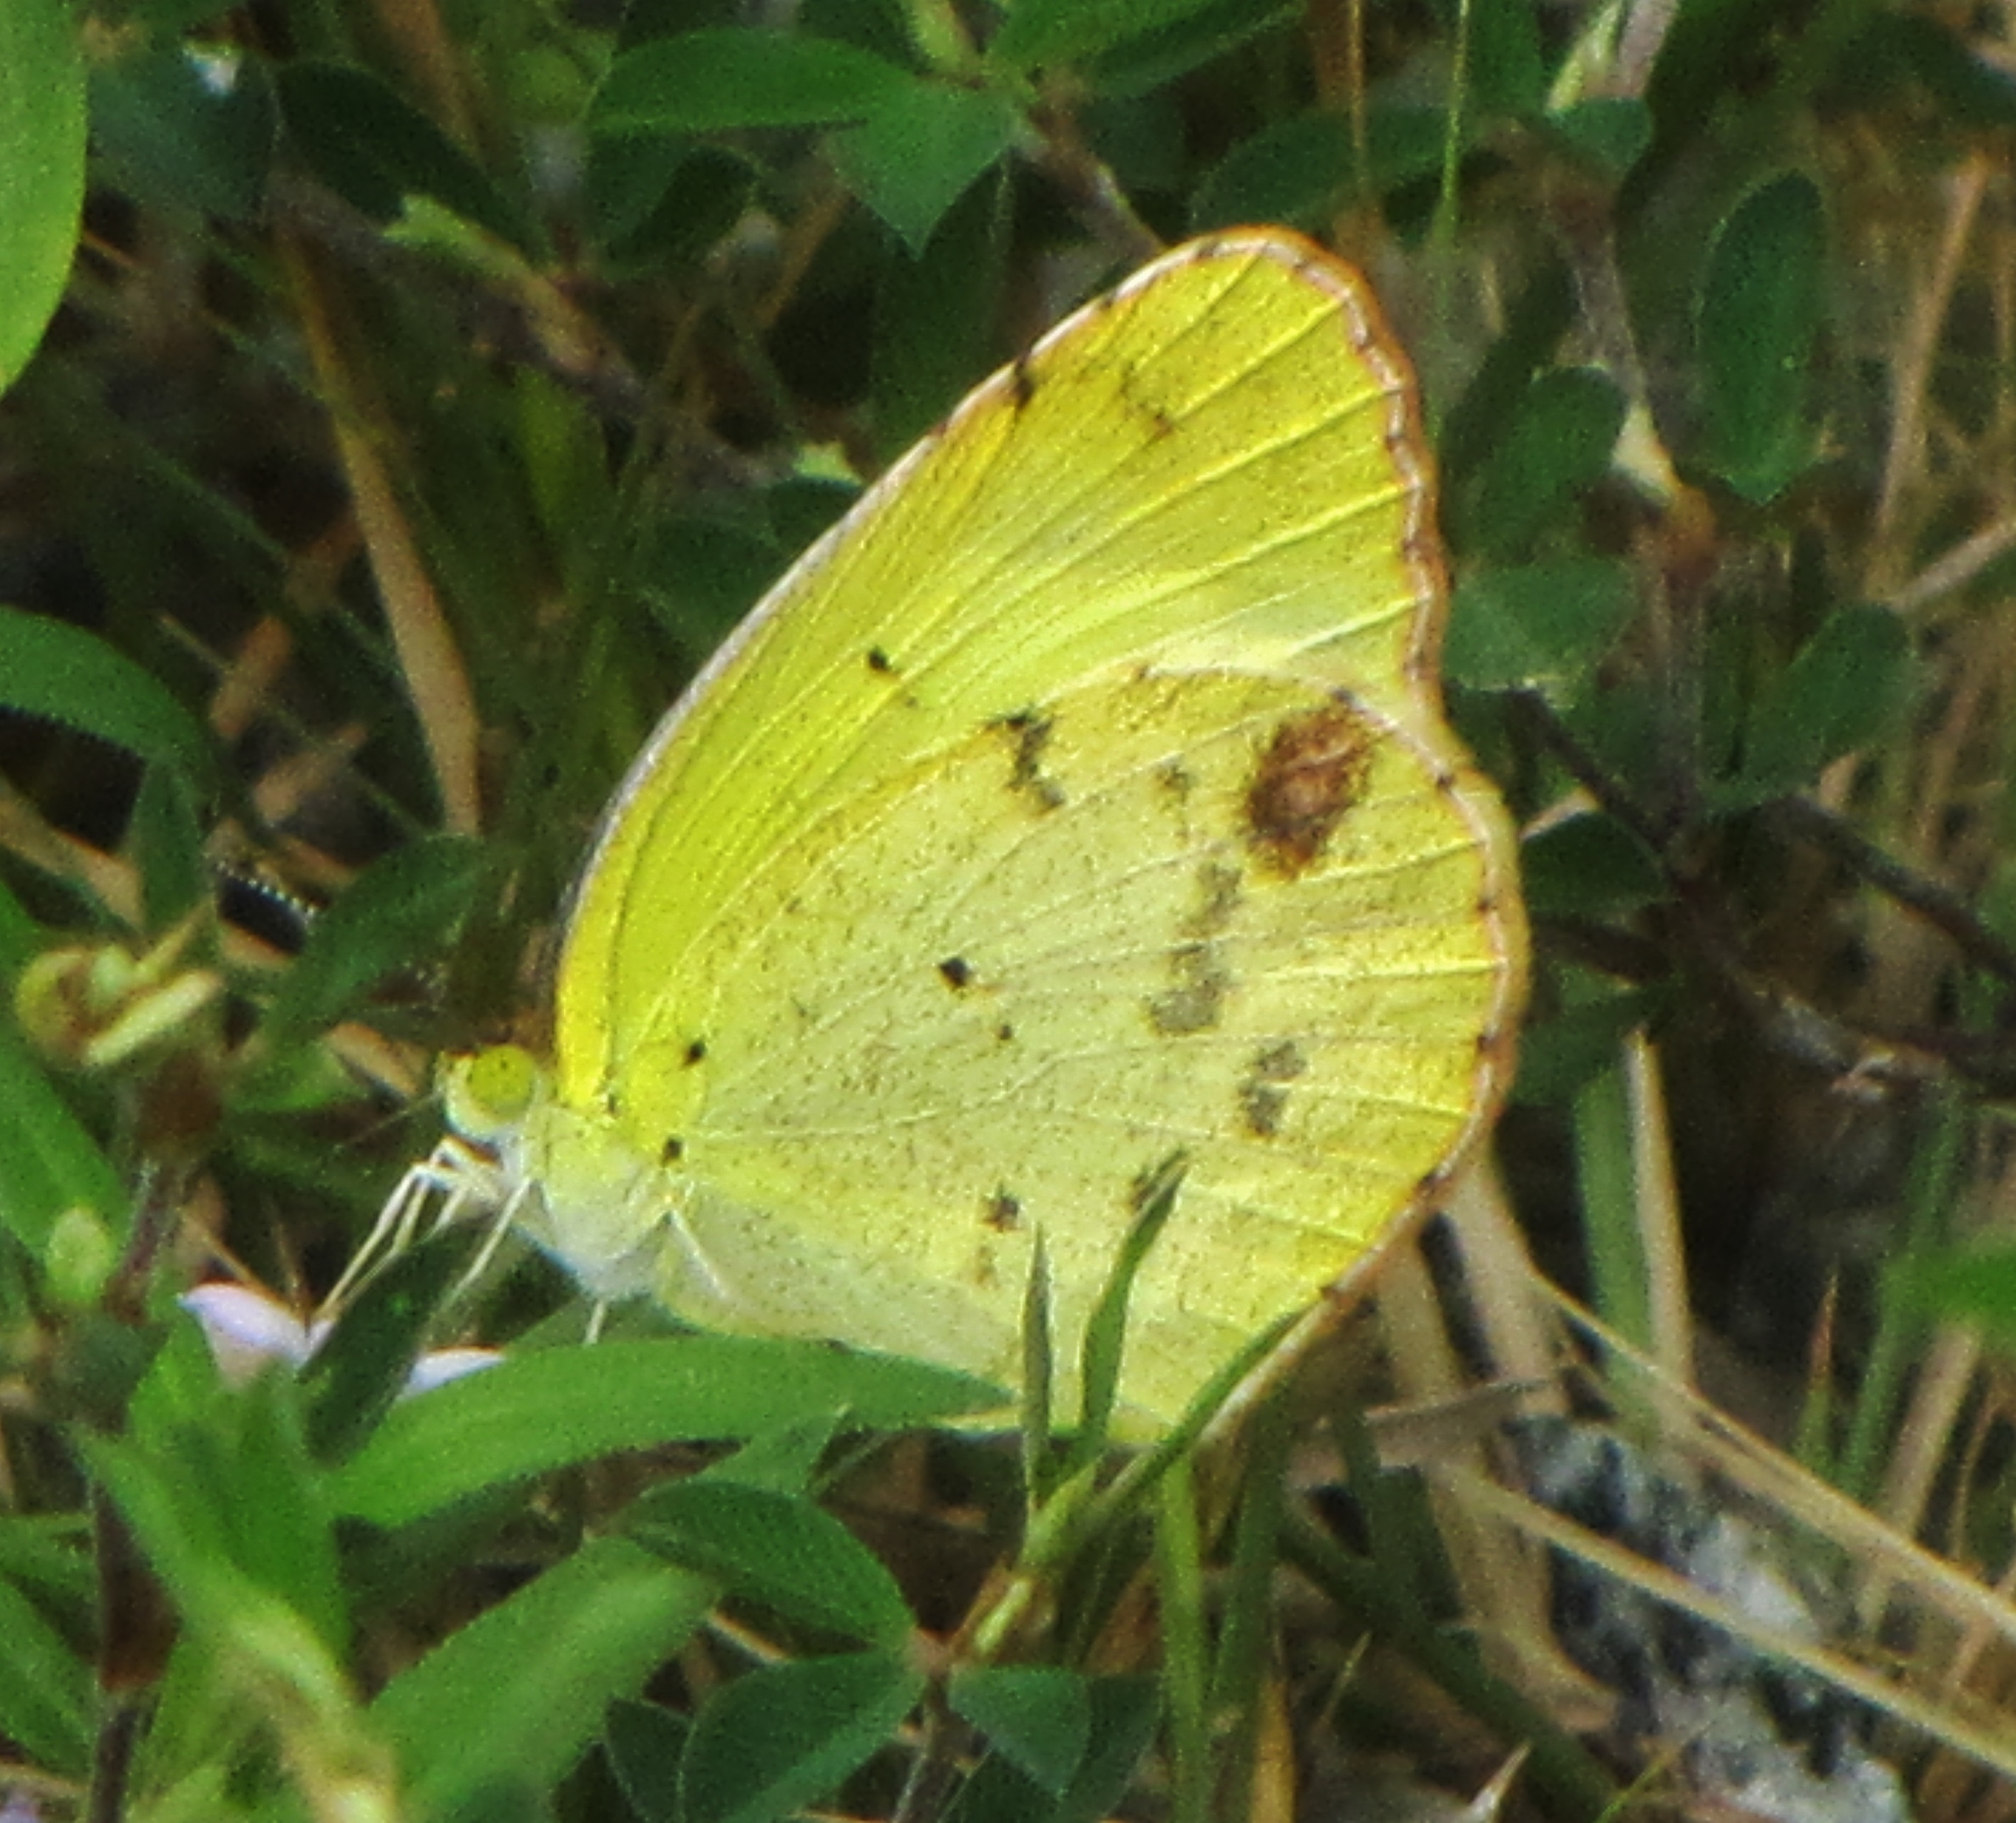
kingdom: Animalia
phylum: Arthropoda
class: Insecta
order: Lepidoptera
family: Pieridae
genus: Pyrisitia
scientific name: Pyrisitia lisa
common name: Little yellow
